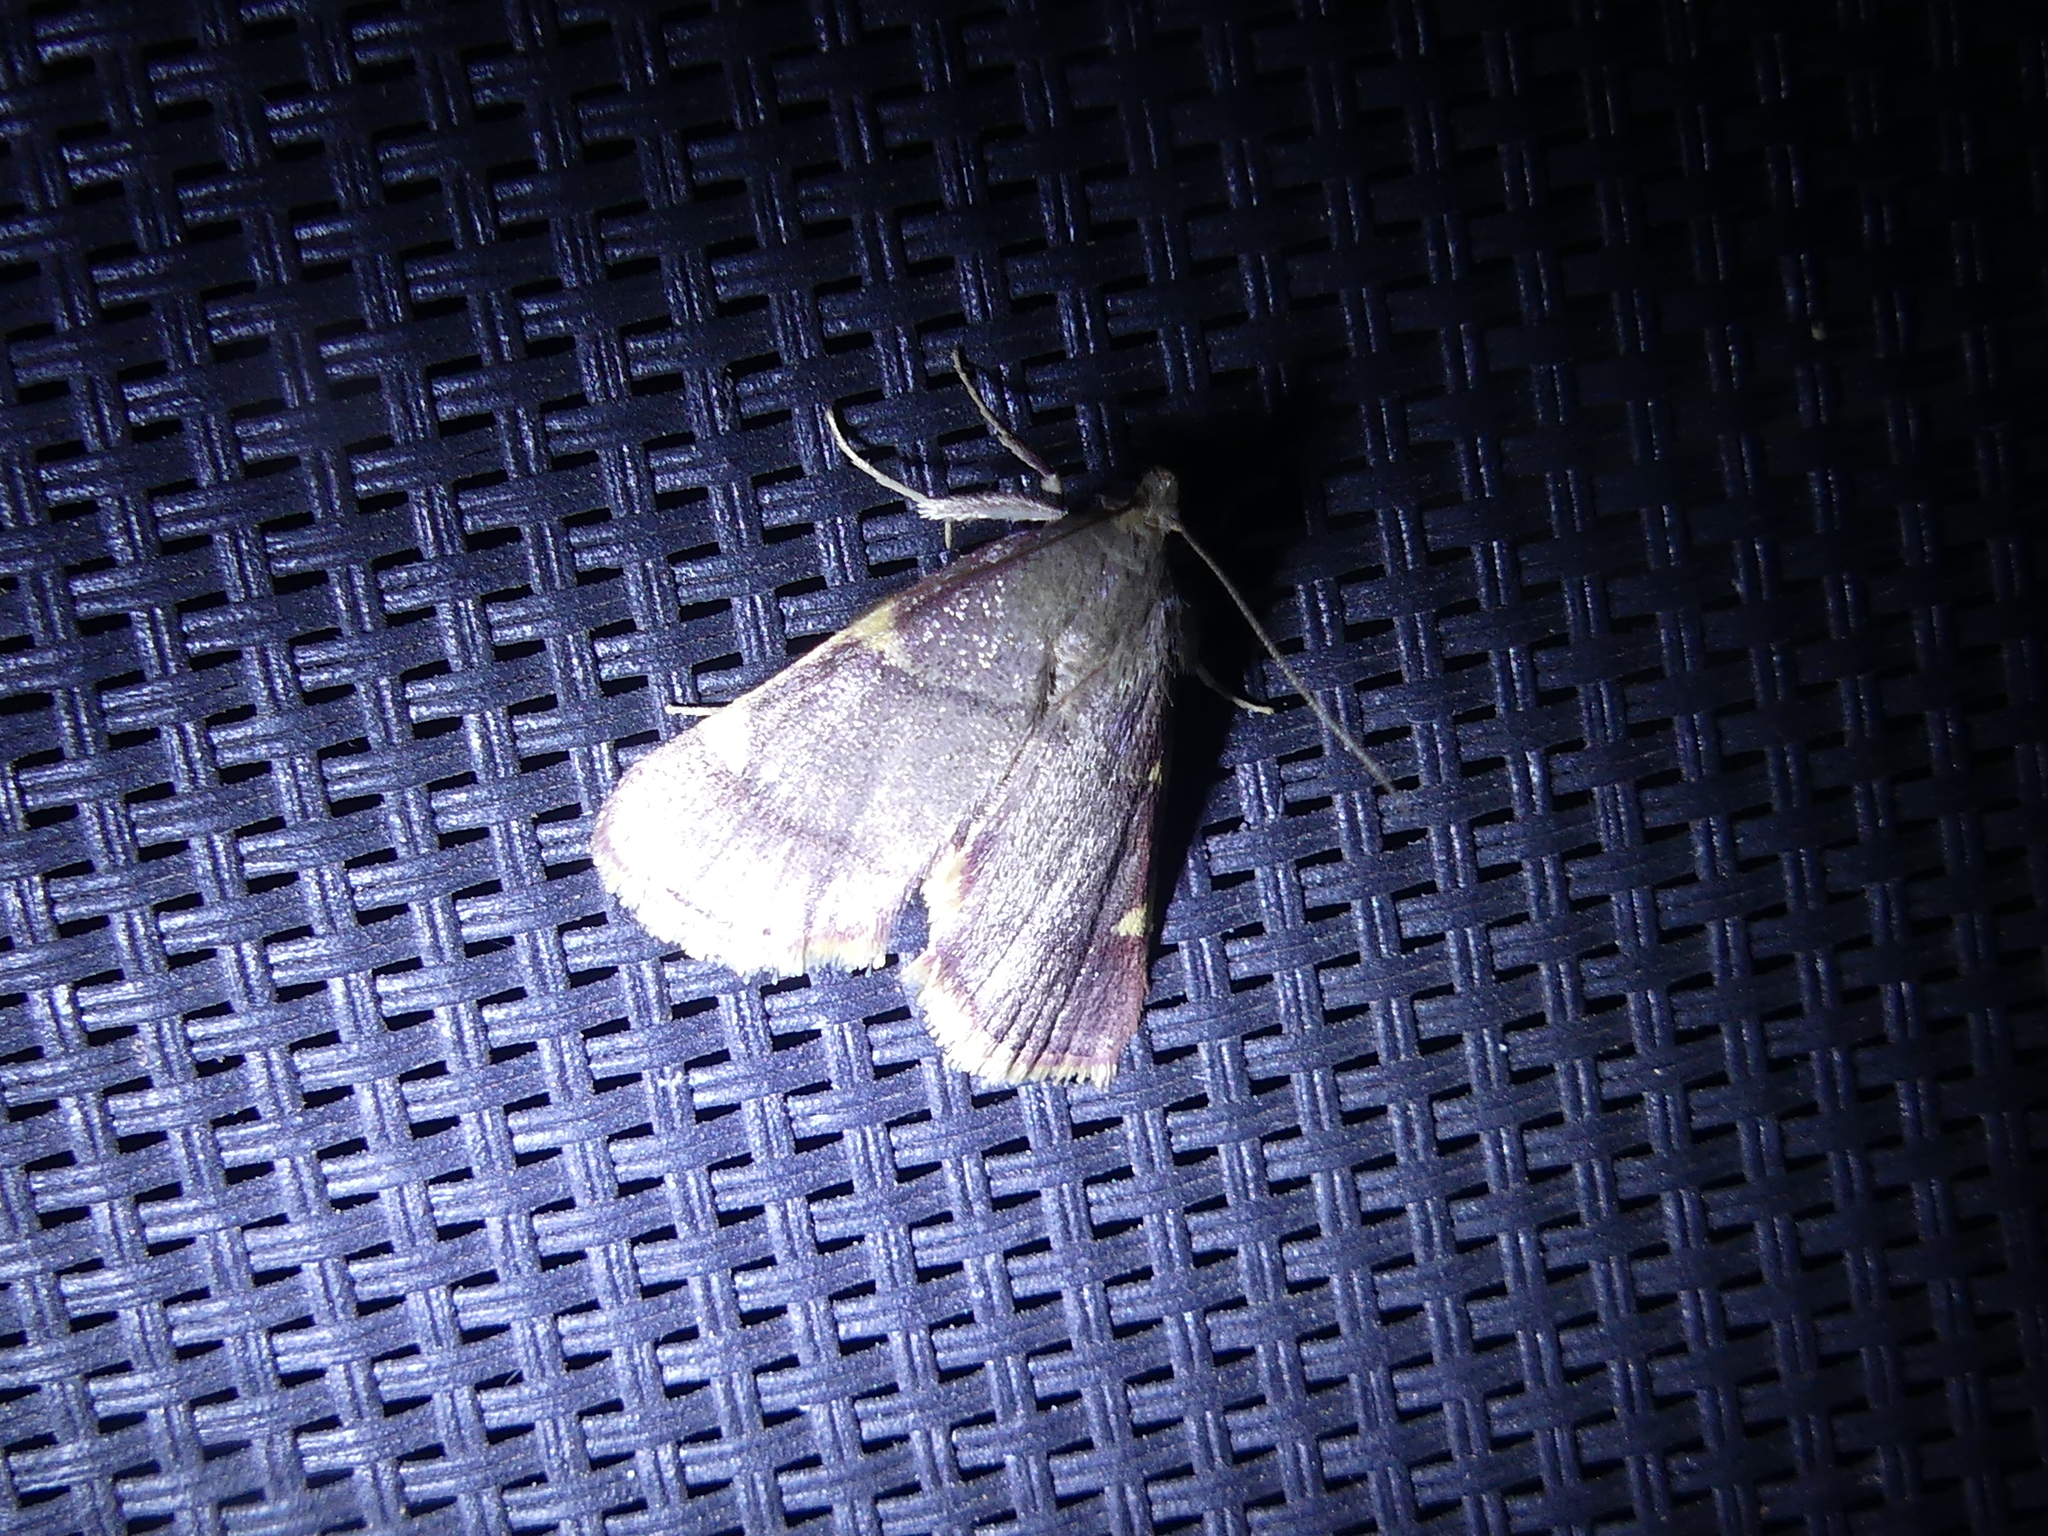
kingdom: Animalia
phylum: Arthropoda
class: Insecta
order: Lepidoptera
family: Pyralidae
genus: Hypsopygia
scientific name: Hypsopygia olinalis
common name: Yellow-fringed dolichomia moth
